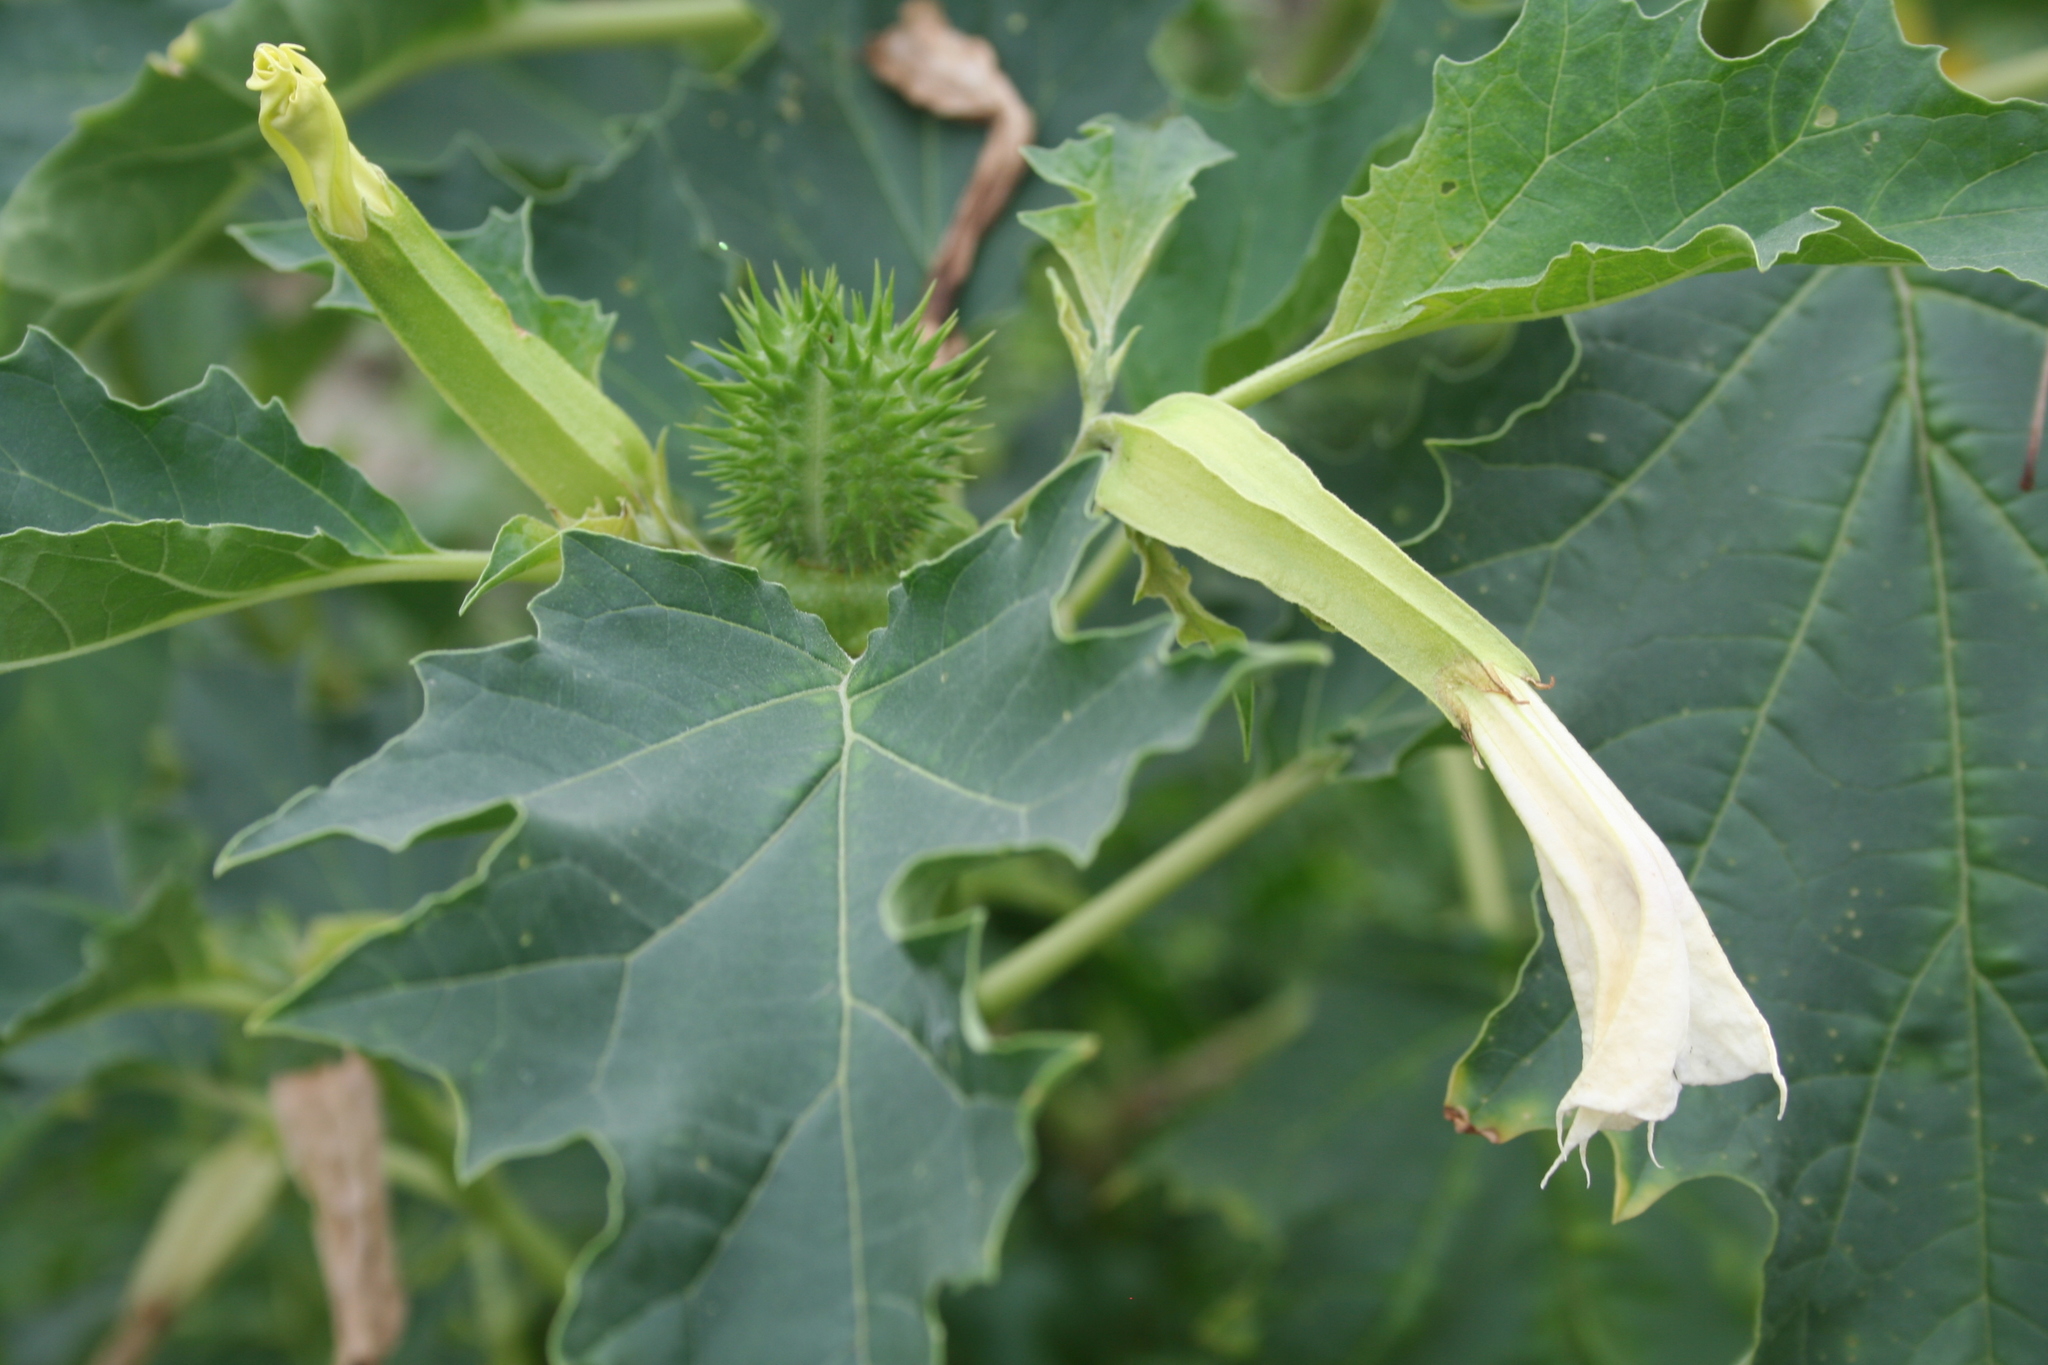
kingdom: Plantae
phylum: Tracheophyta
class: Magnoliopsida
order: Solanales
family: Solanaceae
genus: Datura
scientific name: Datura stramonium
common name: Thorn-apple
